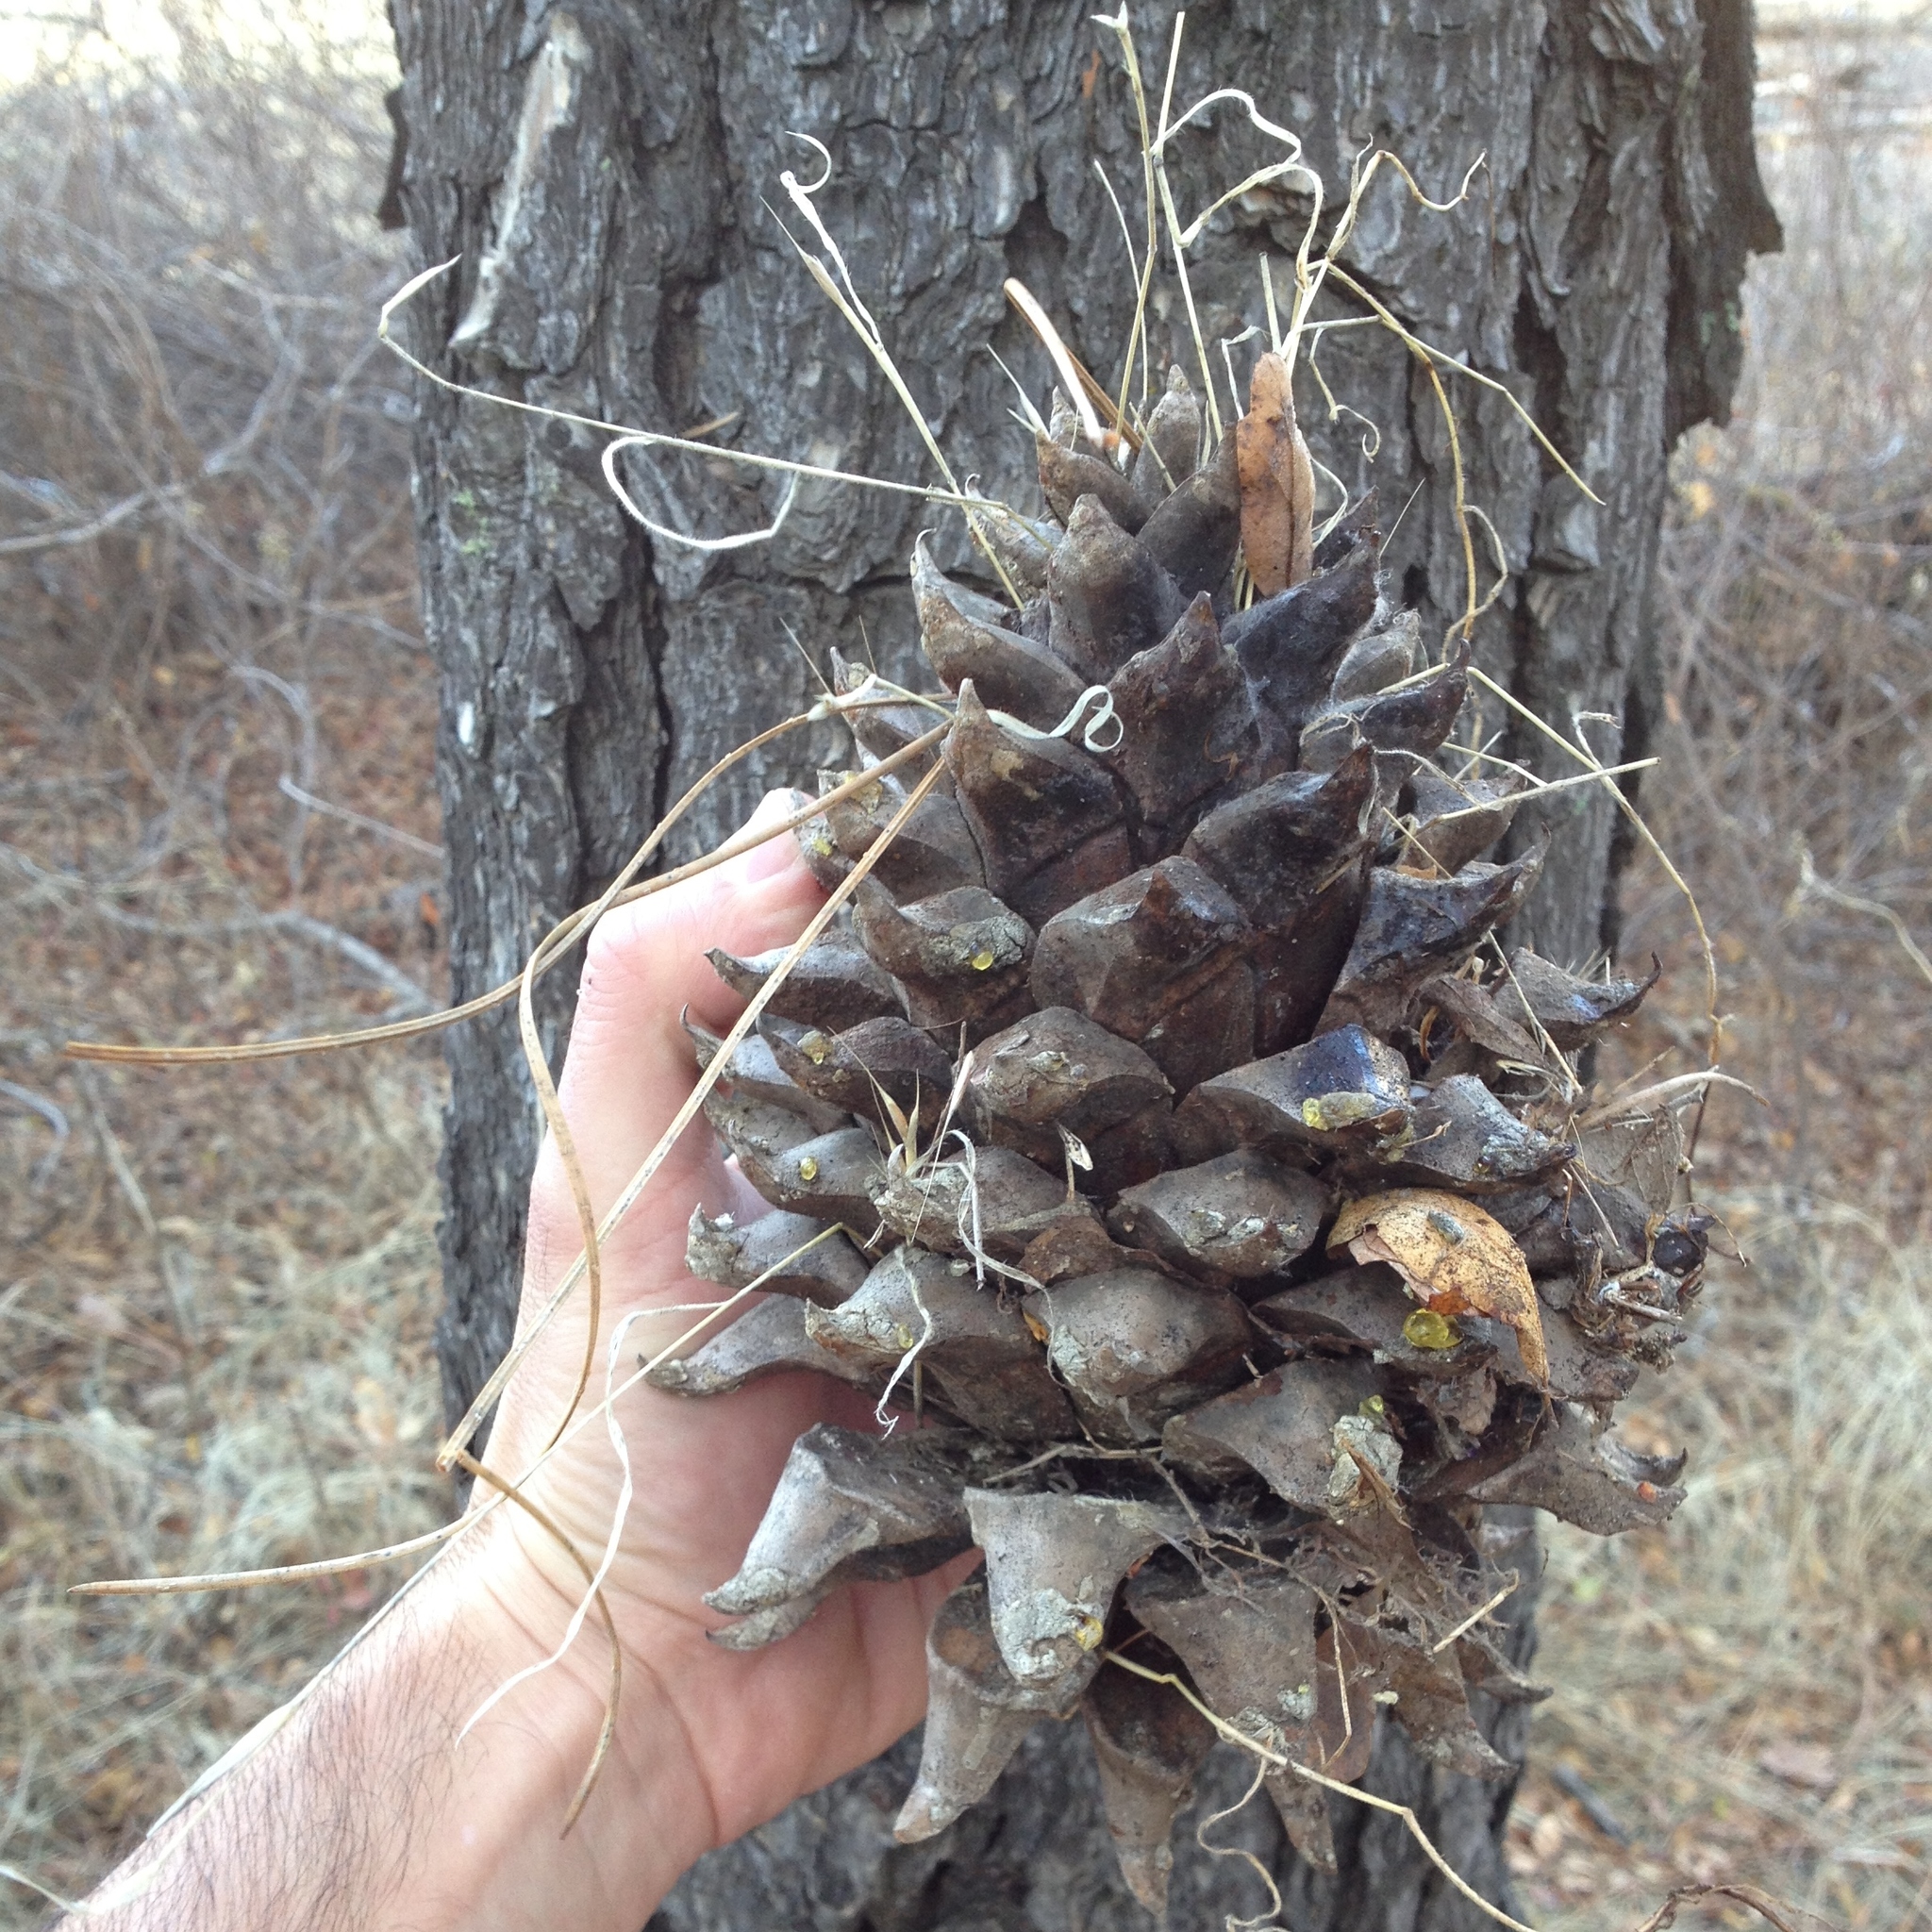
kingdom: Plantae
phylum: Tracheophyta
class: Pinopsida
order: Pinales
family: Pinaceae
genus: Pinus
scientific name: Pinus sabiniana
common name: Bull pine
